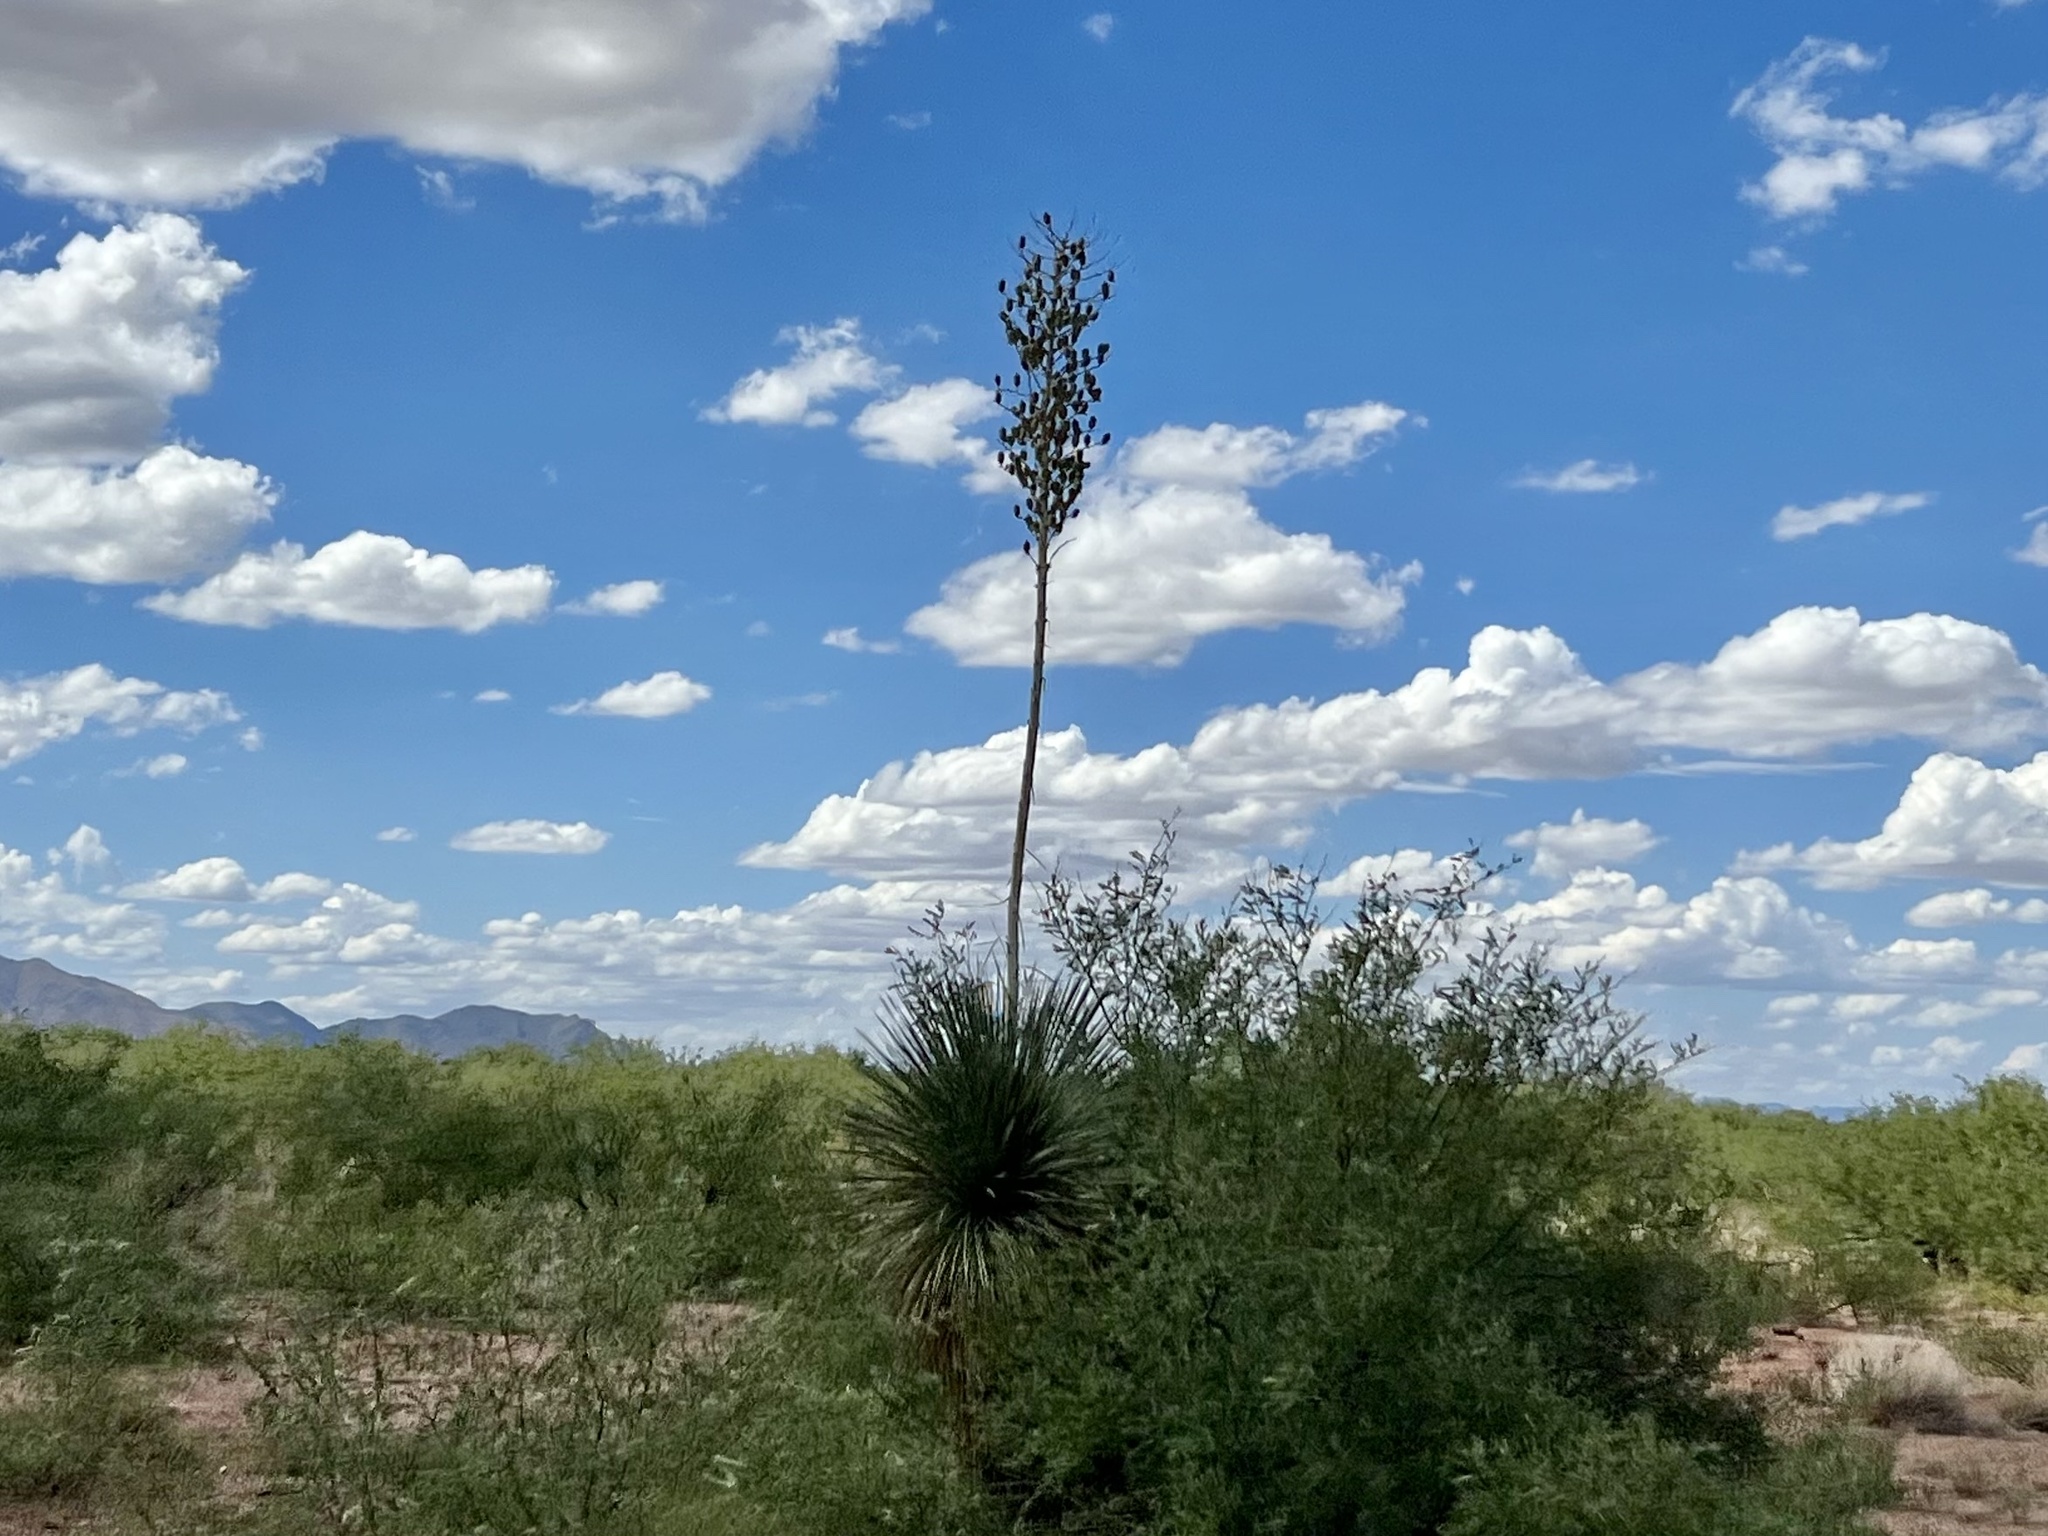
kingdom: Plantae
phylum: Tracheophyta
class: Liliopsida
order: Asparagales
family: Asparagaceae
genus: Yucca
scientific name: Yucca elata
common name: Palmella
